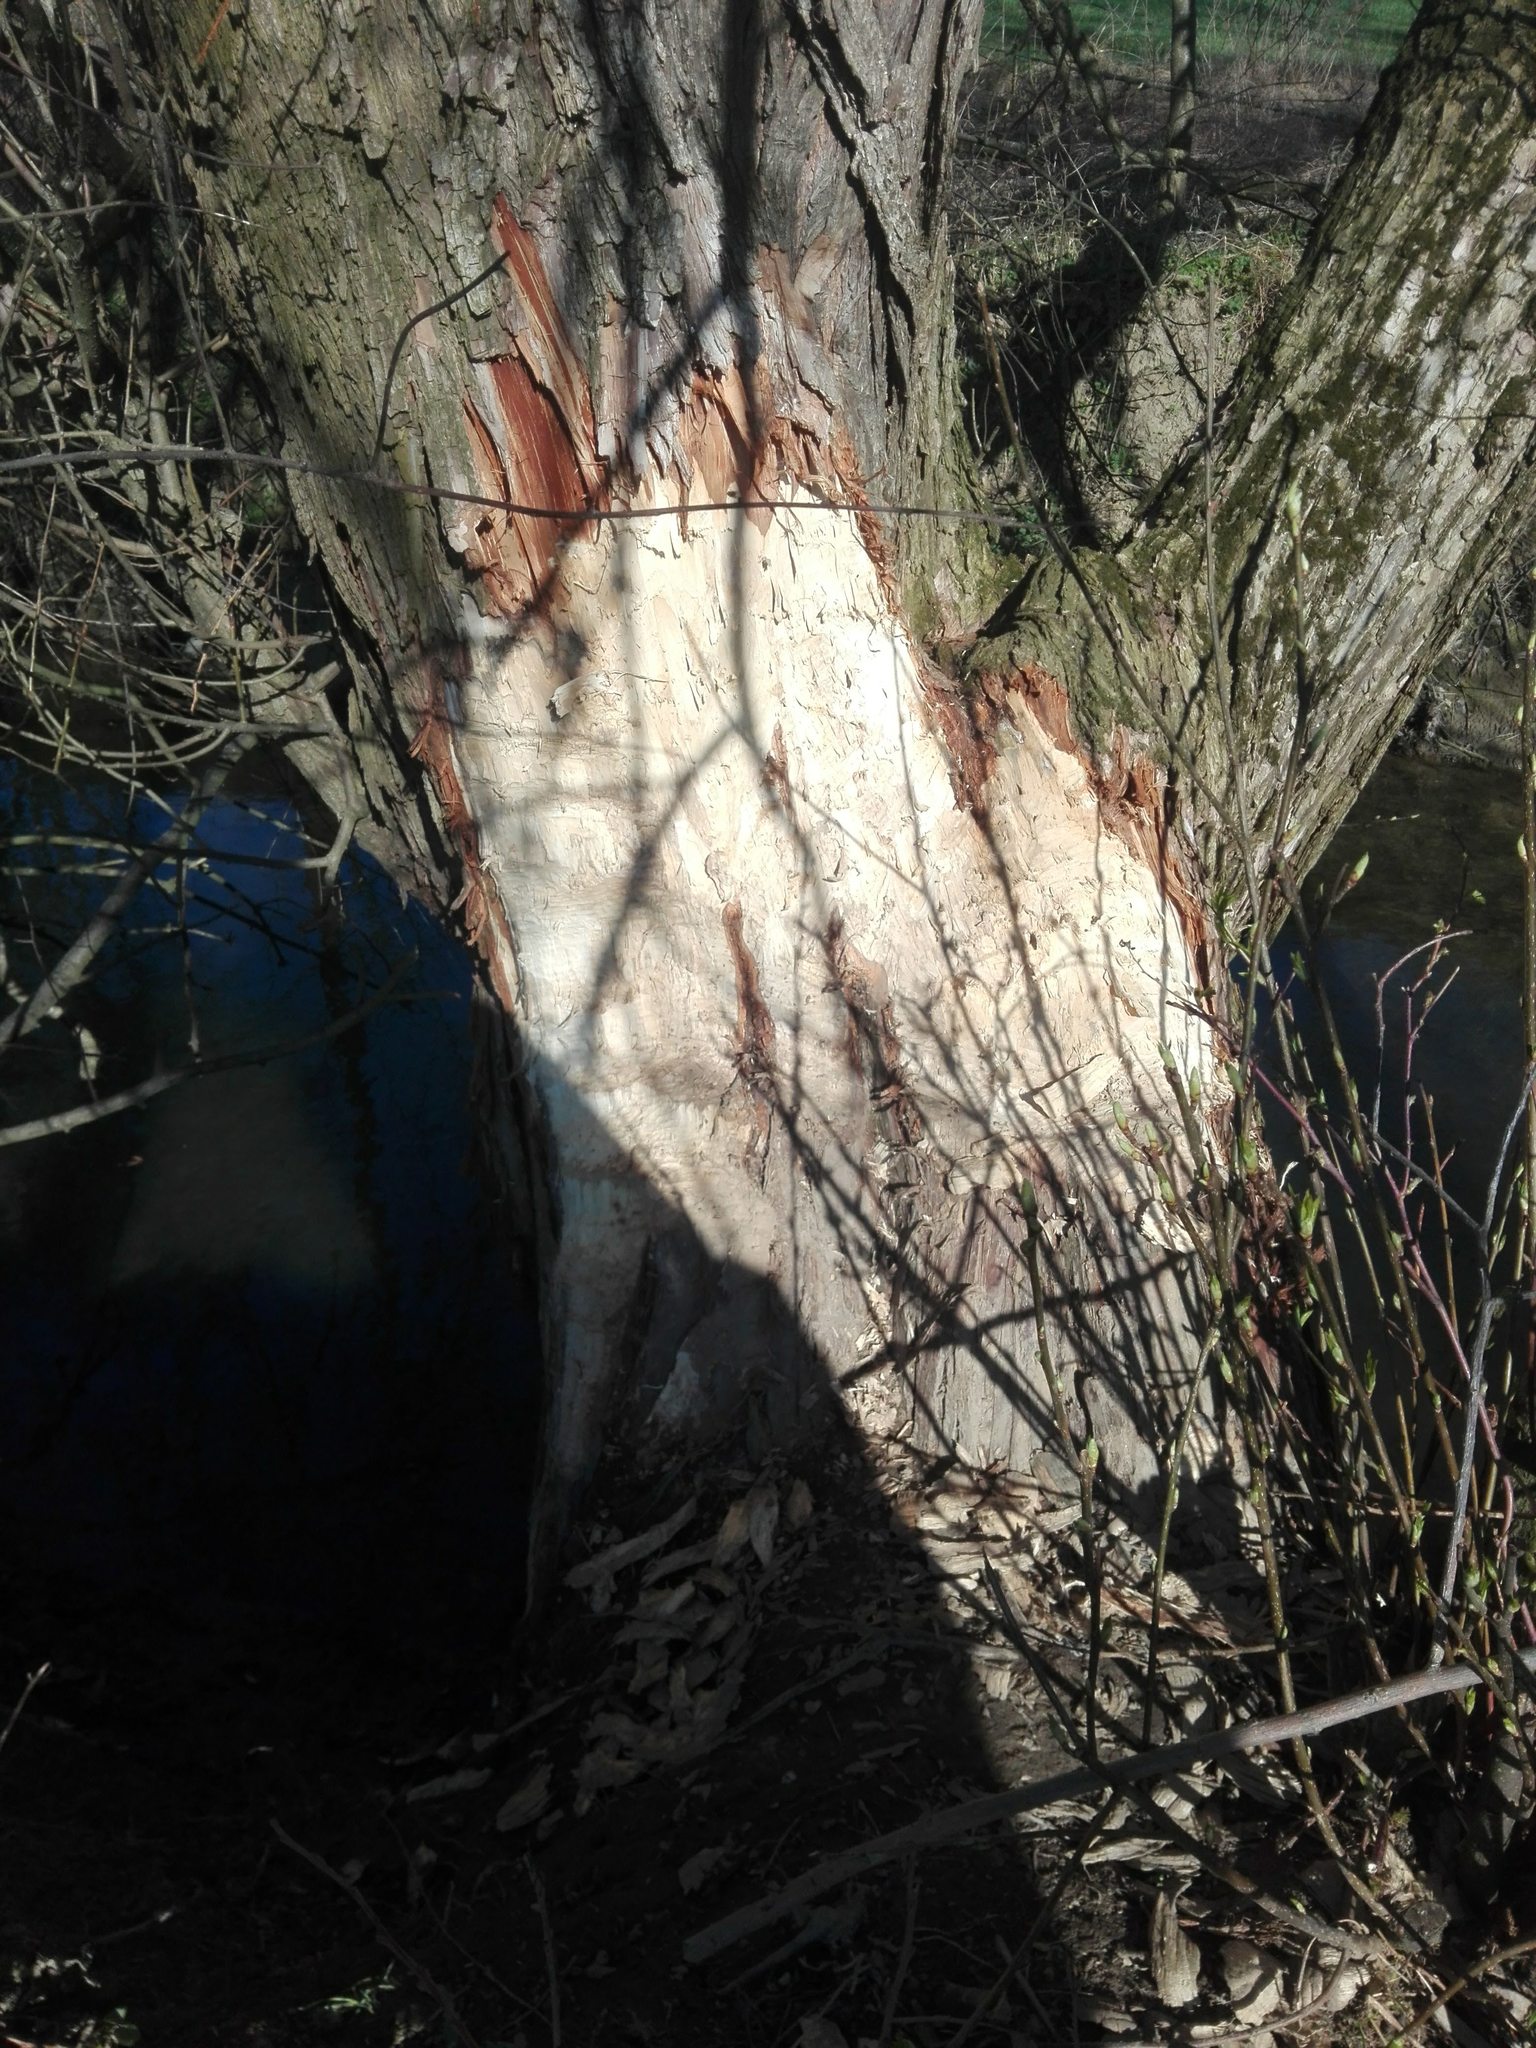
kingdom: Animalia
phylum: Chordata
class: Mammalia
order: Rodentia
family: Castoridae
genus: Castor
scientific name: Castor fiber
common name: Eurasian beaver
